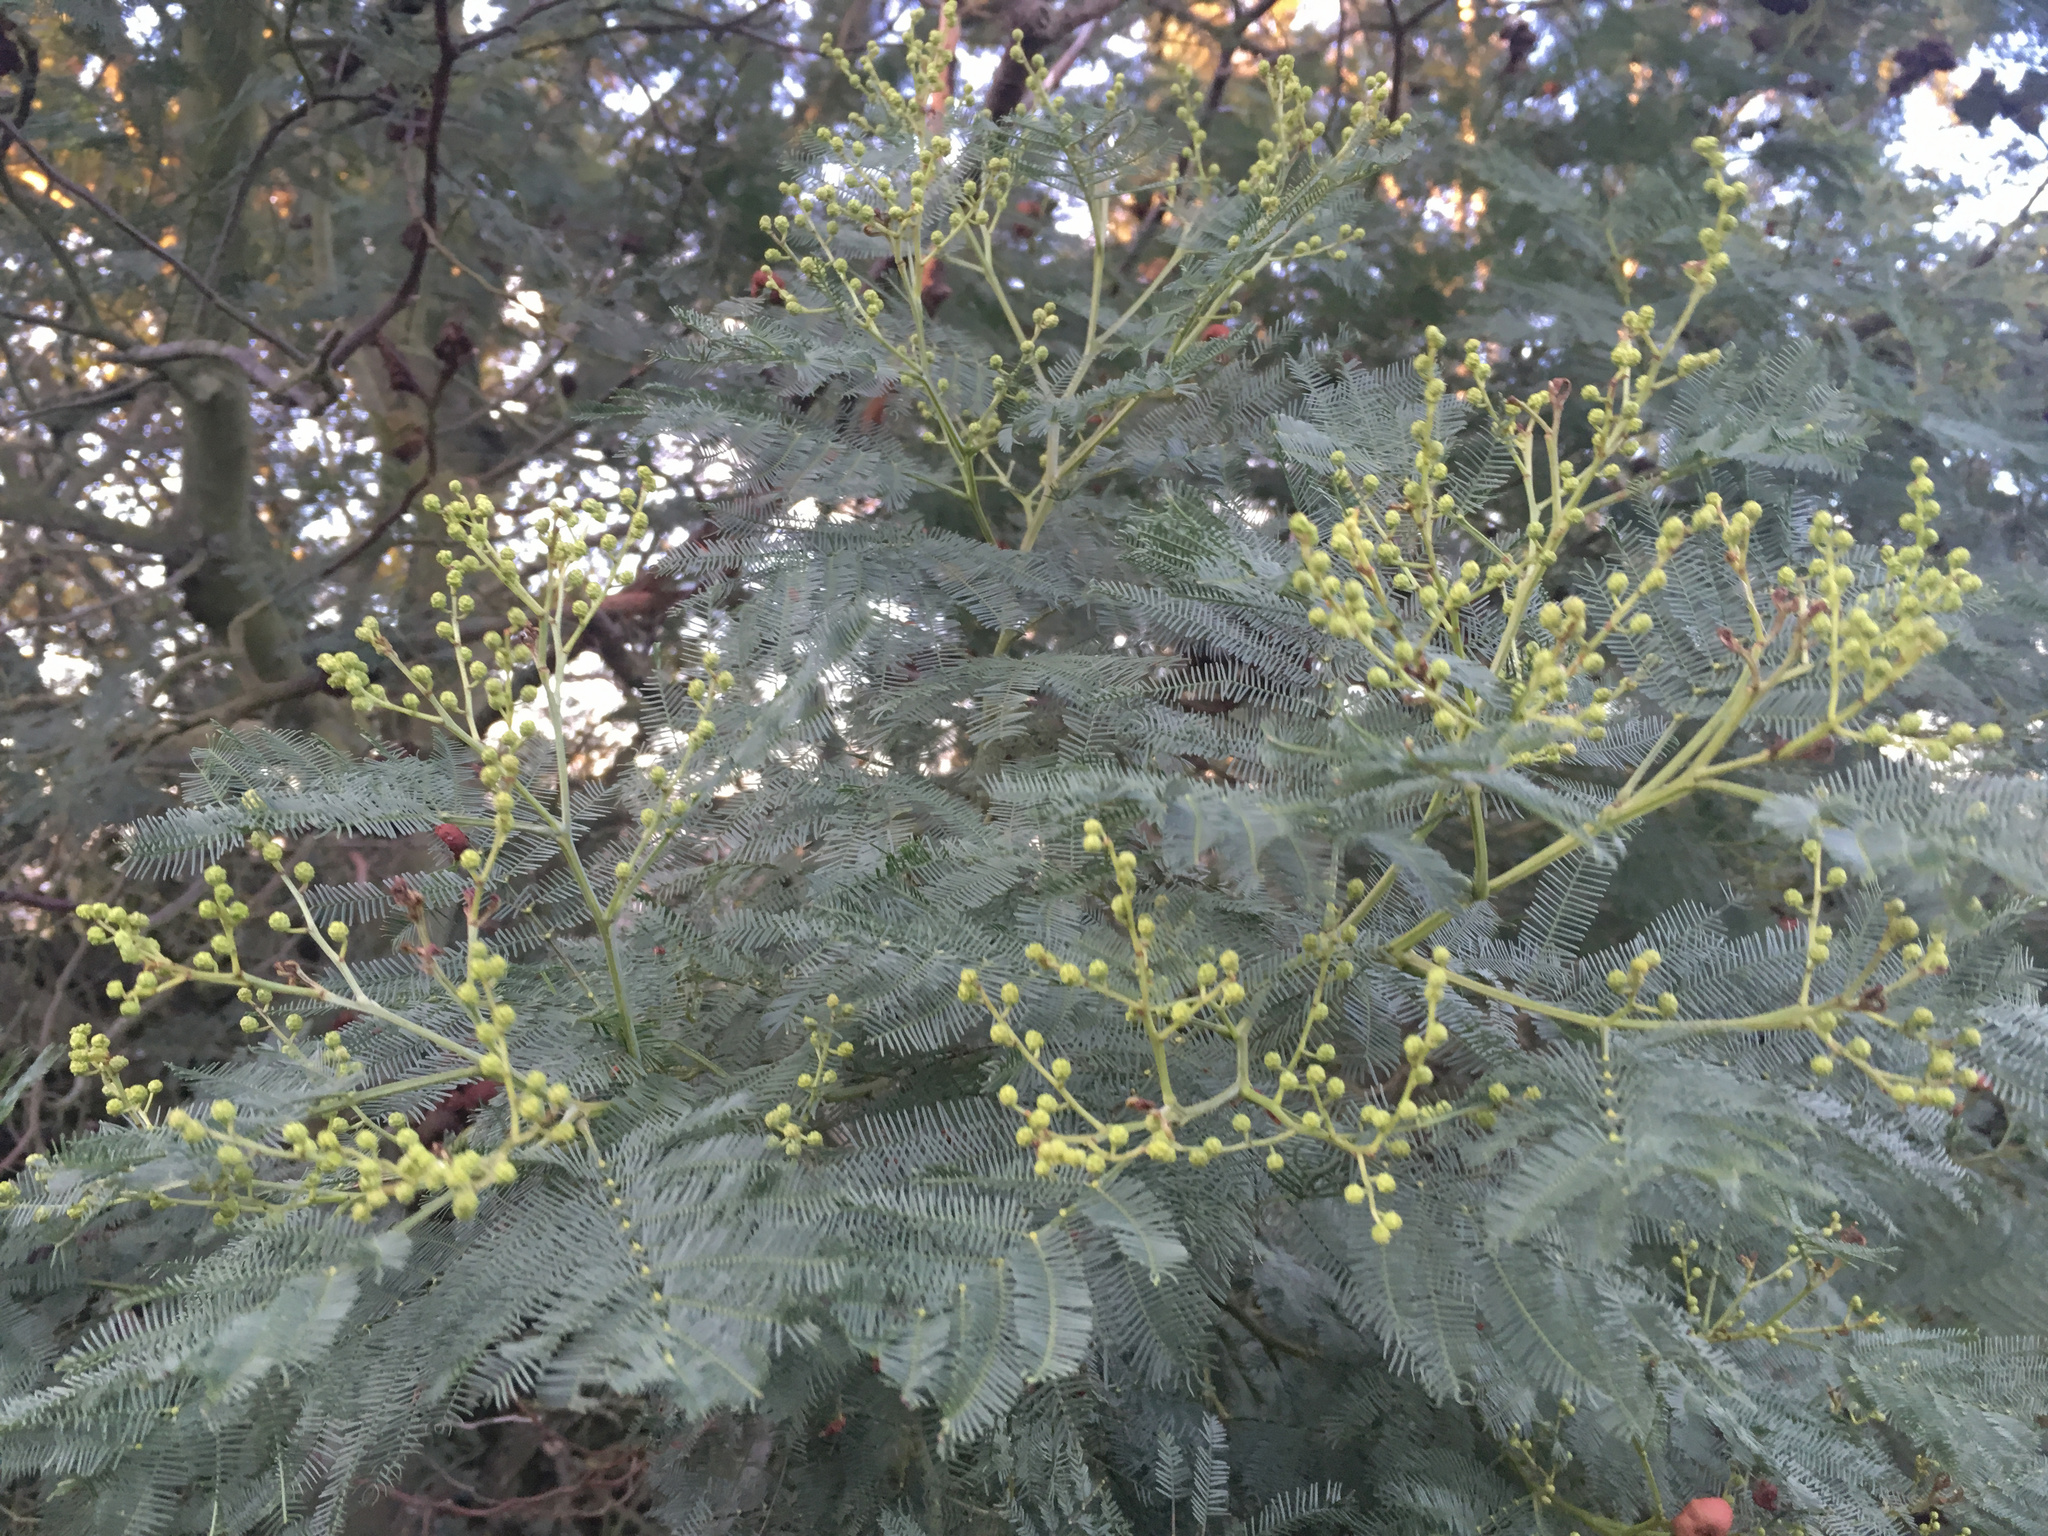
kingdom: Plantae
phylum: Tracheophyta
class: Magnoliopsida
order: Fabales
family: Fabaceae
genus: Acacia
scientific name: Acacia dealbata
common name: Silver wattle
